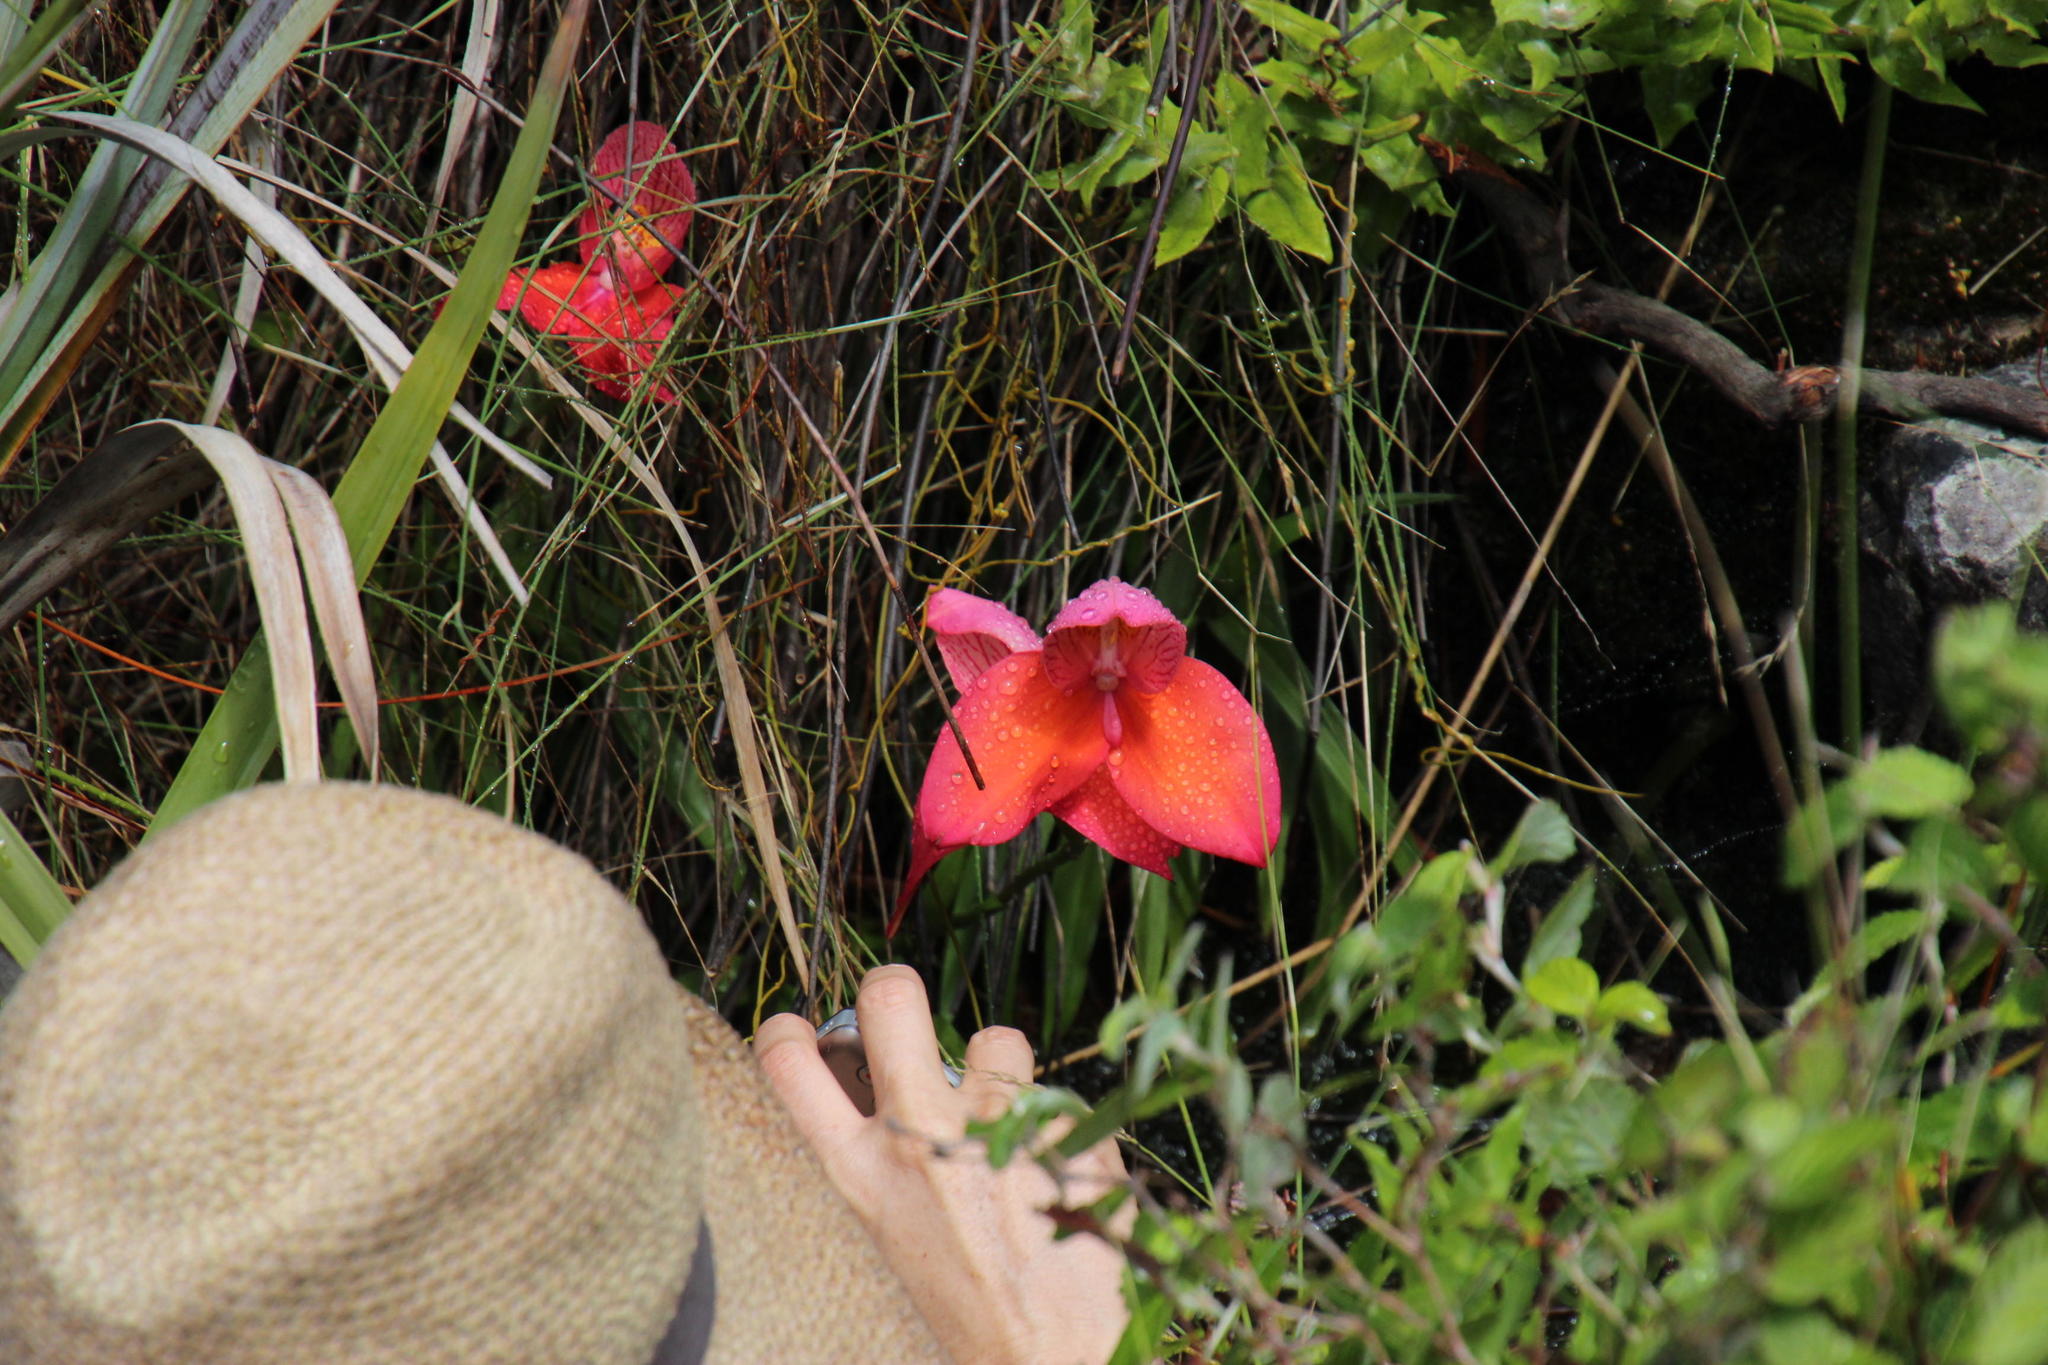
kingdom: Plantae
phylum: Tracheophyta
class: Liliopsida
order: Asparagales
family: Orchidaceae
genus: Disa
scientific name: Disa uniflora
